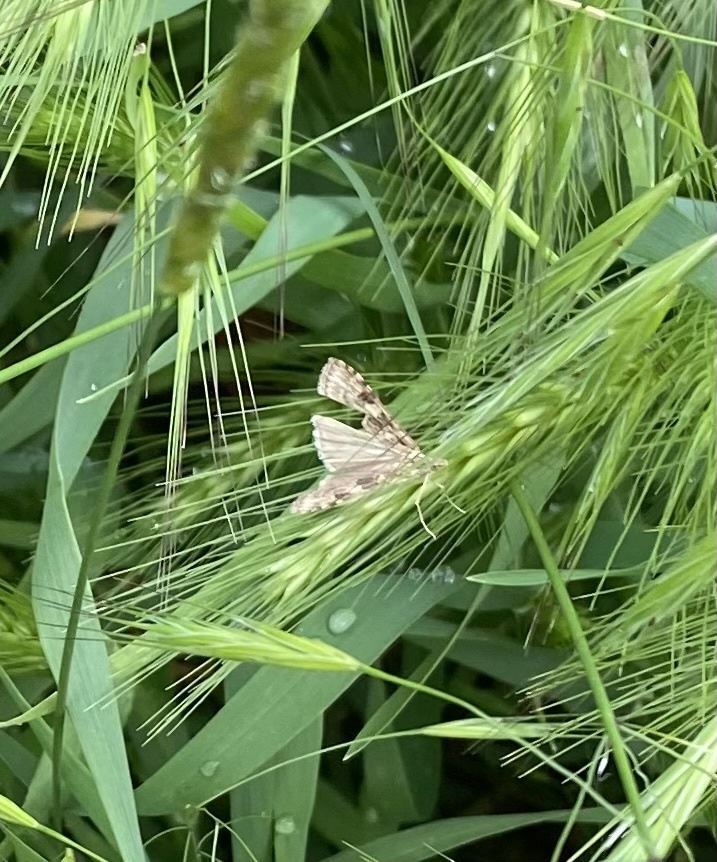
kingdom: Animalia
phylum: Arthropoda
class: Insecta
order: Lepidoptera
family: Crambidae
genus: Nomophila
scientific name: Nomophila noctuella
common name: Rush veneer
